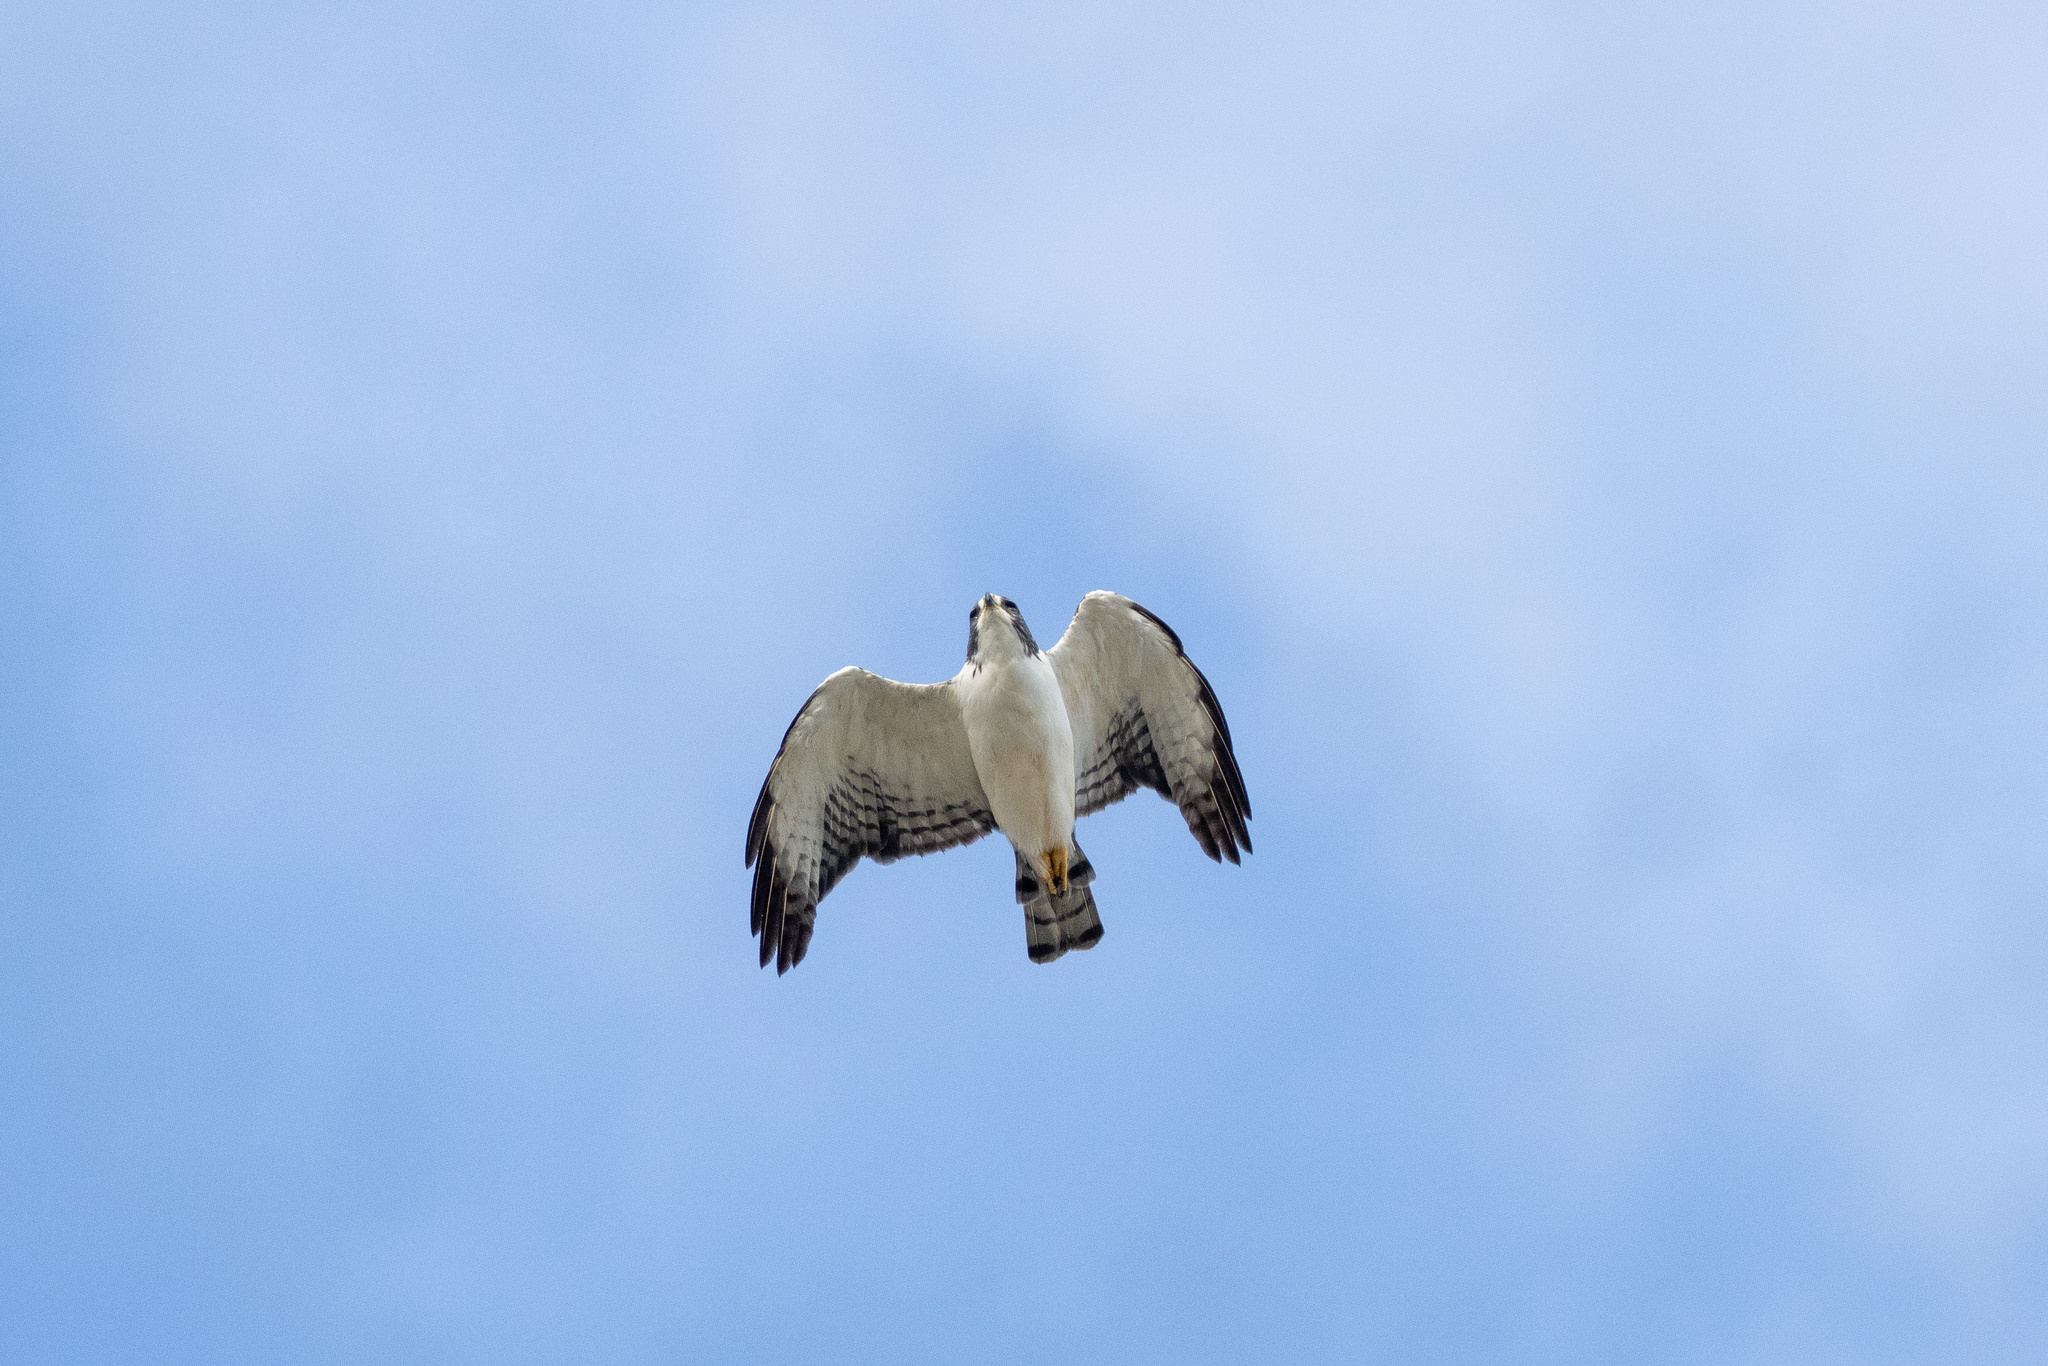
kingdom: Animalia
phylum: Chordata
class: Aves
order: Accipitriformes
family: Accipitridae
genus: Buteo
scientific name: Buteo brachyurus
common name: Short-tailed hawk
